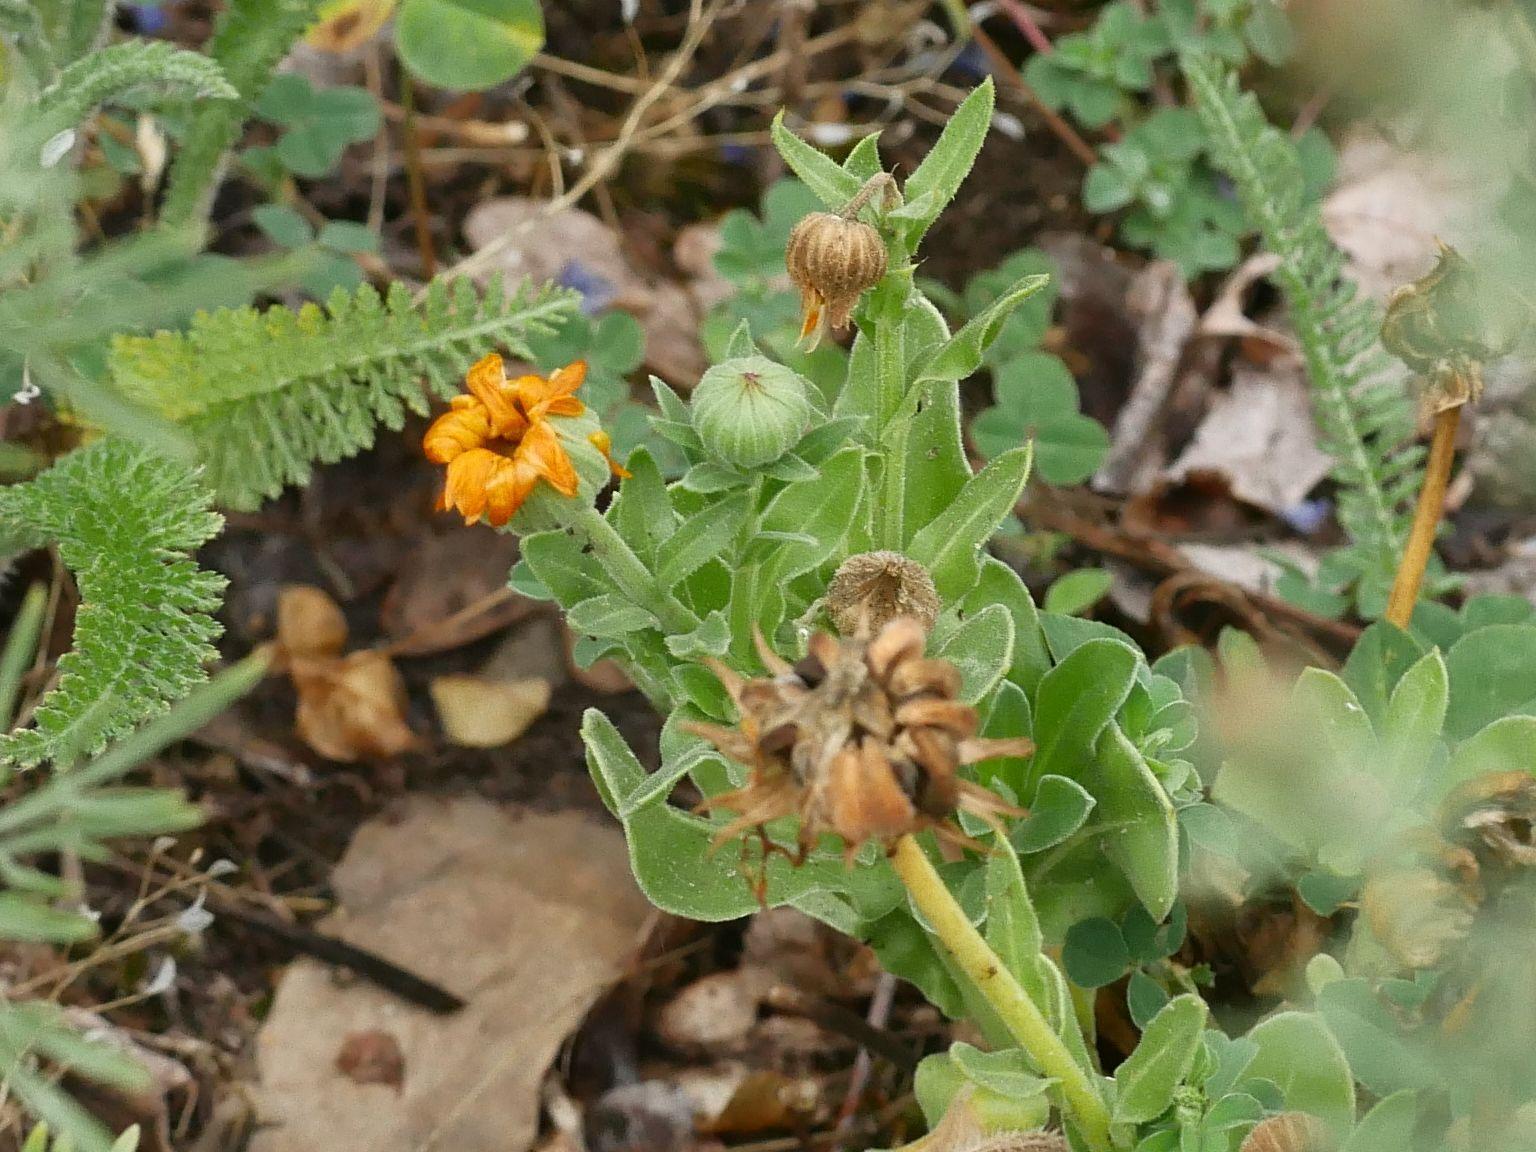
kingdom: Plantae
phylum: Tracheophyta
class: Magnoliopsida
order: Asterales
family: Asteraceae
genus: Calendula
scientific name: Calendula officinalis
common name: Pot marigold
